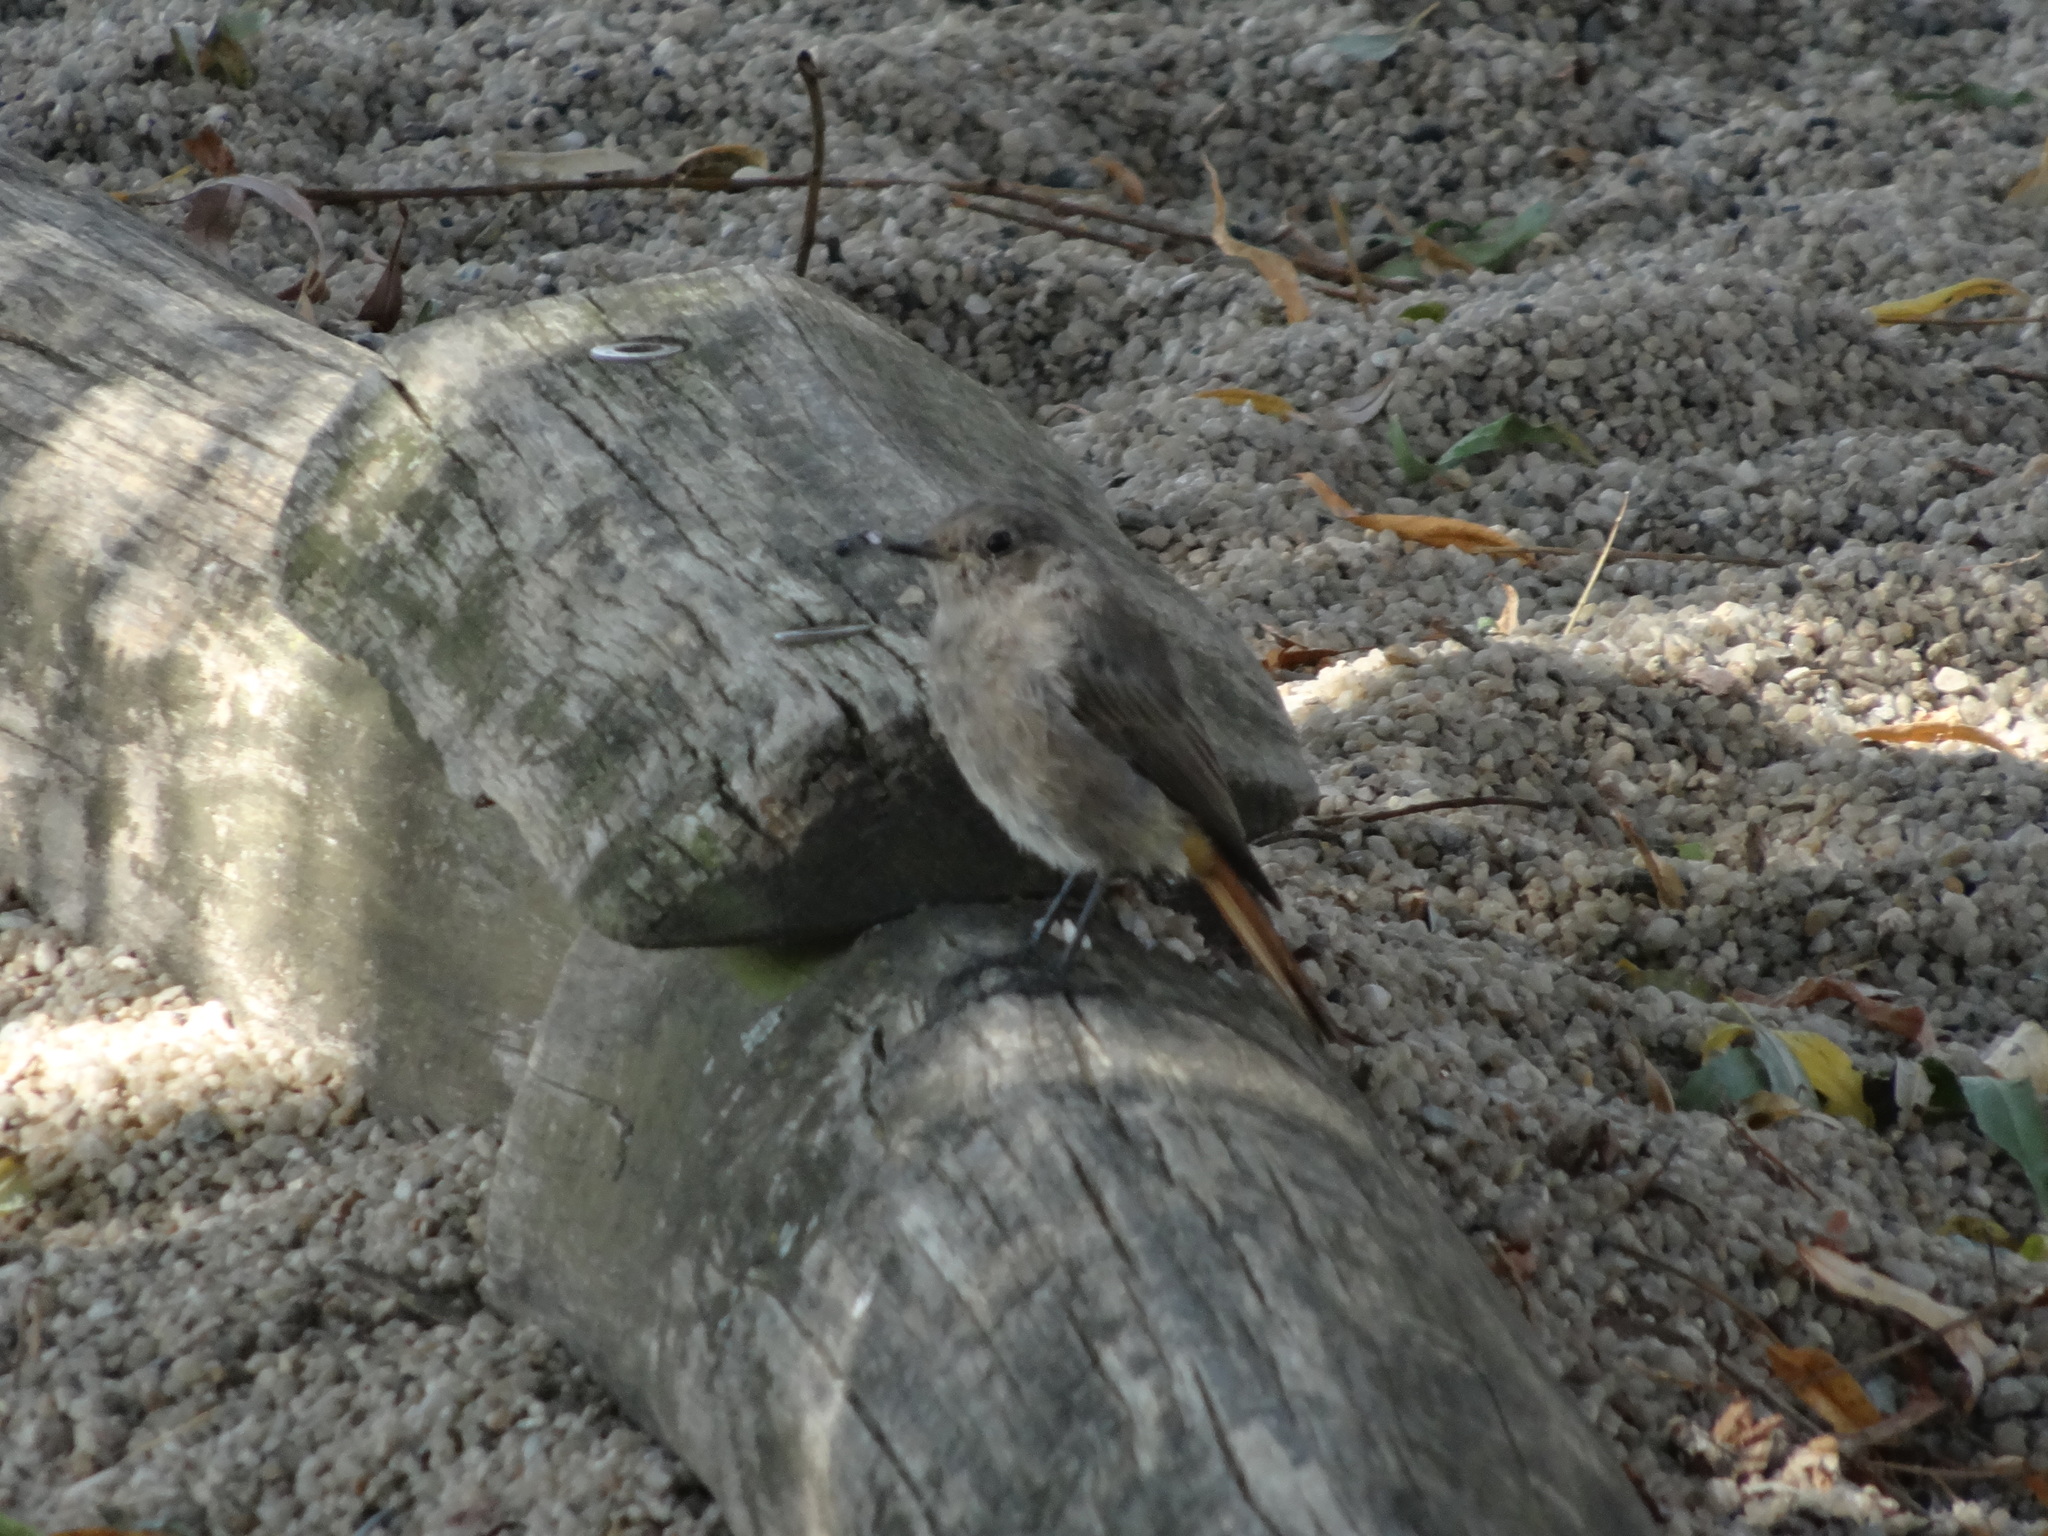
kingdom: Animalia
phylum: Chordata
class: Aves
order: Passeriformes
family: Muscicapidae
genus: Phoenicurus
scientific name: Phoenicurus ochruros
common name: Black redstart
